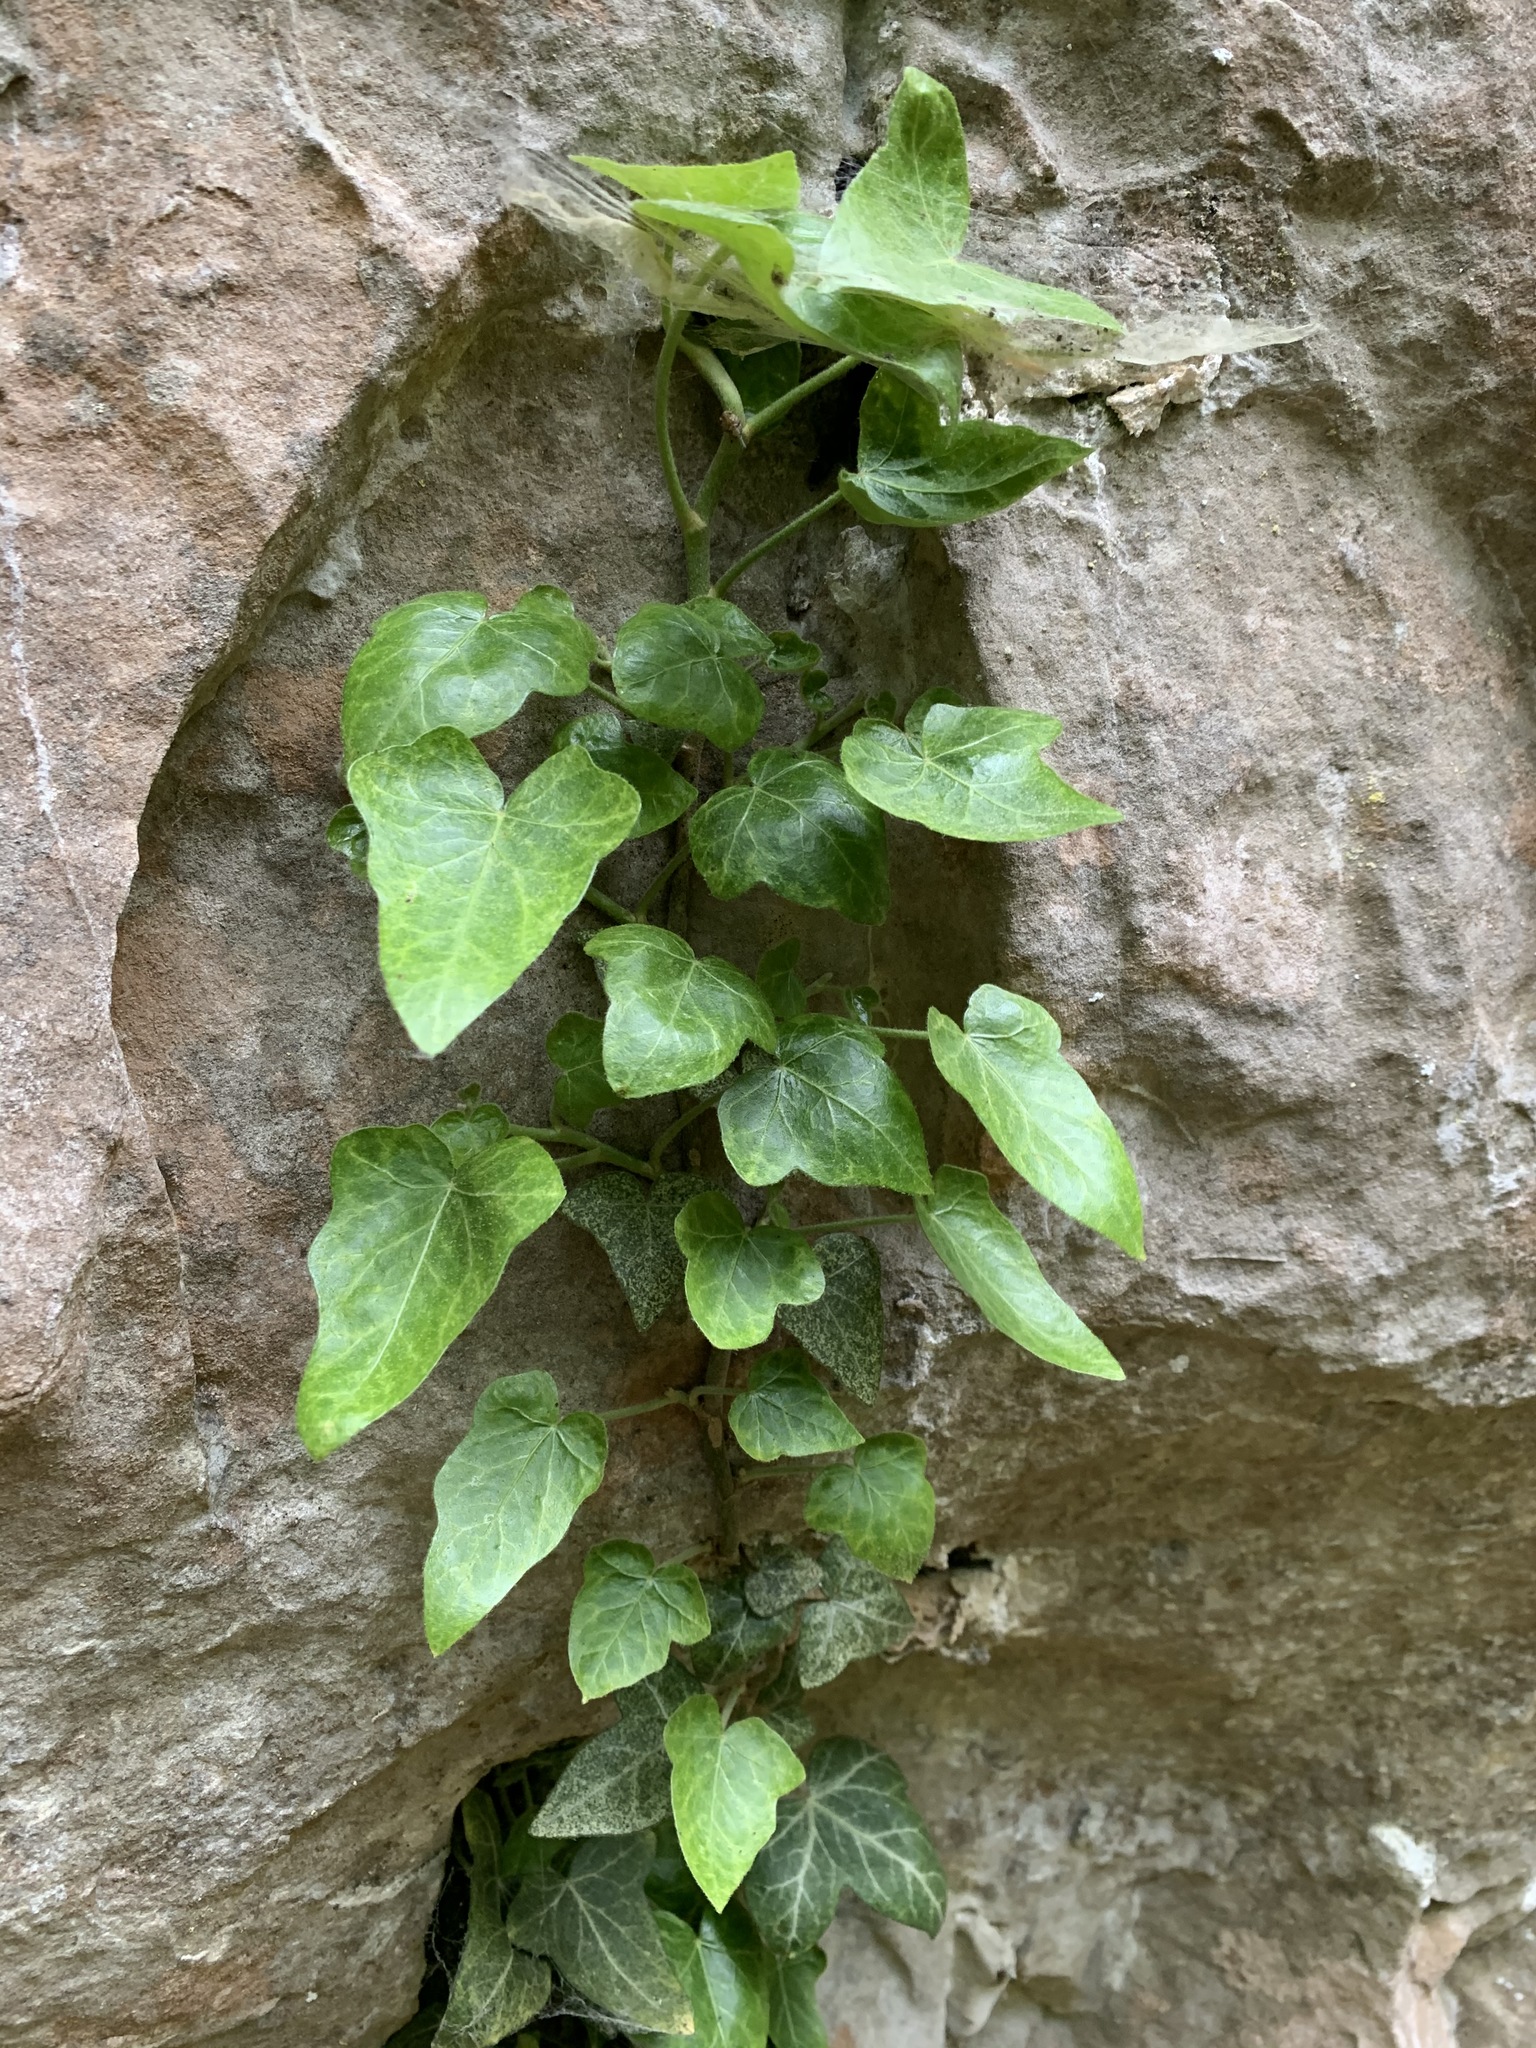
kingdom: Plantae
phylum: Tracheophyta
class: Magnoliopsida
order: Apiales
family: Araliaceae
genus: Hedera
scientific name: Hedera helix
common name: Ivy
